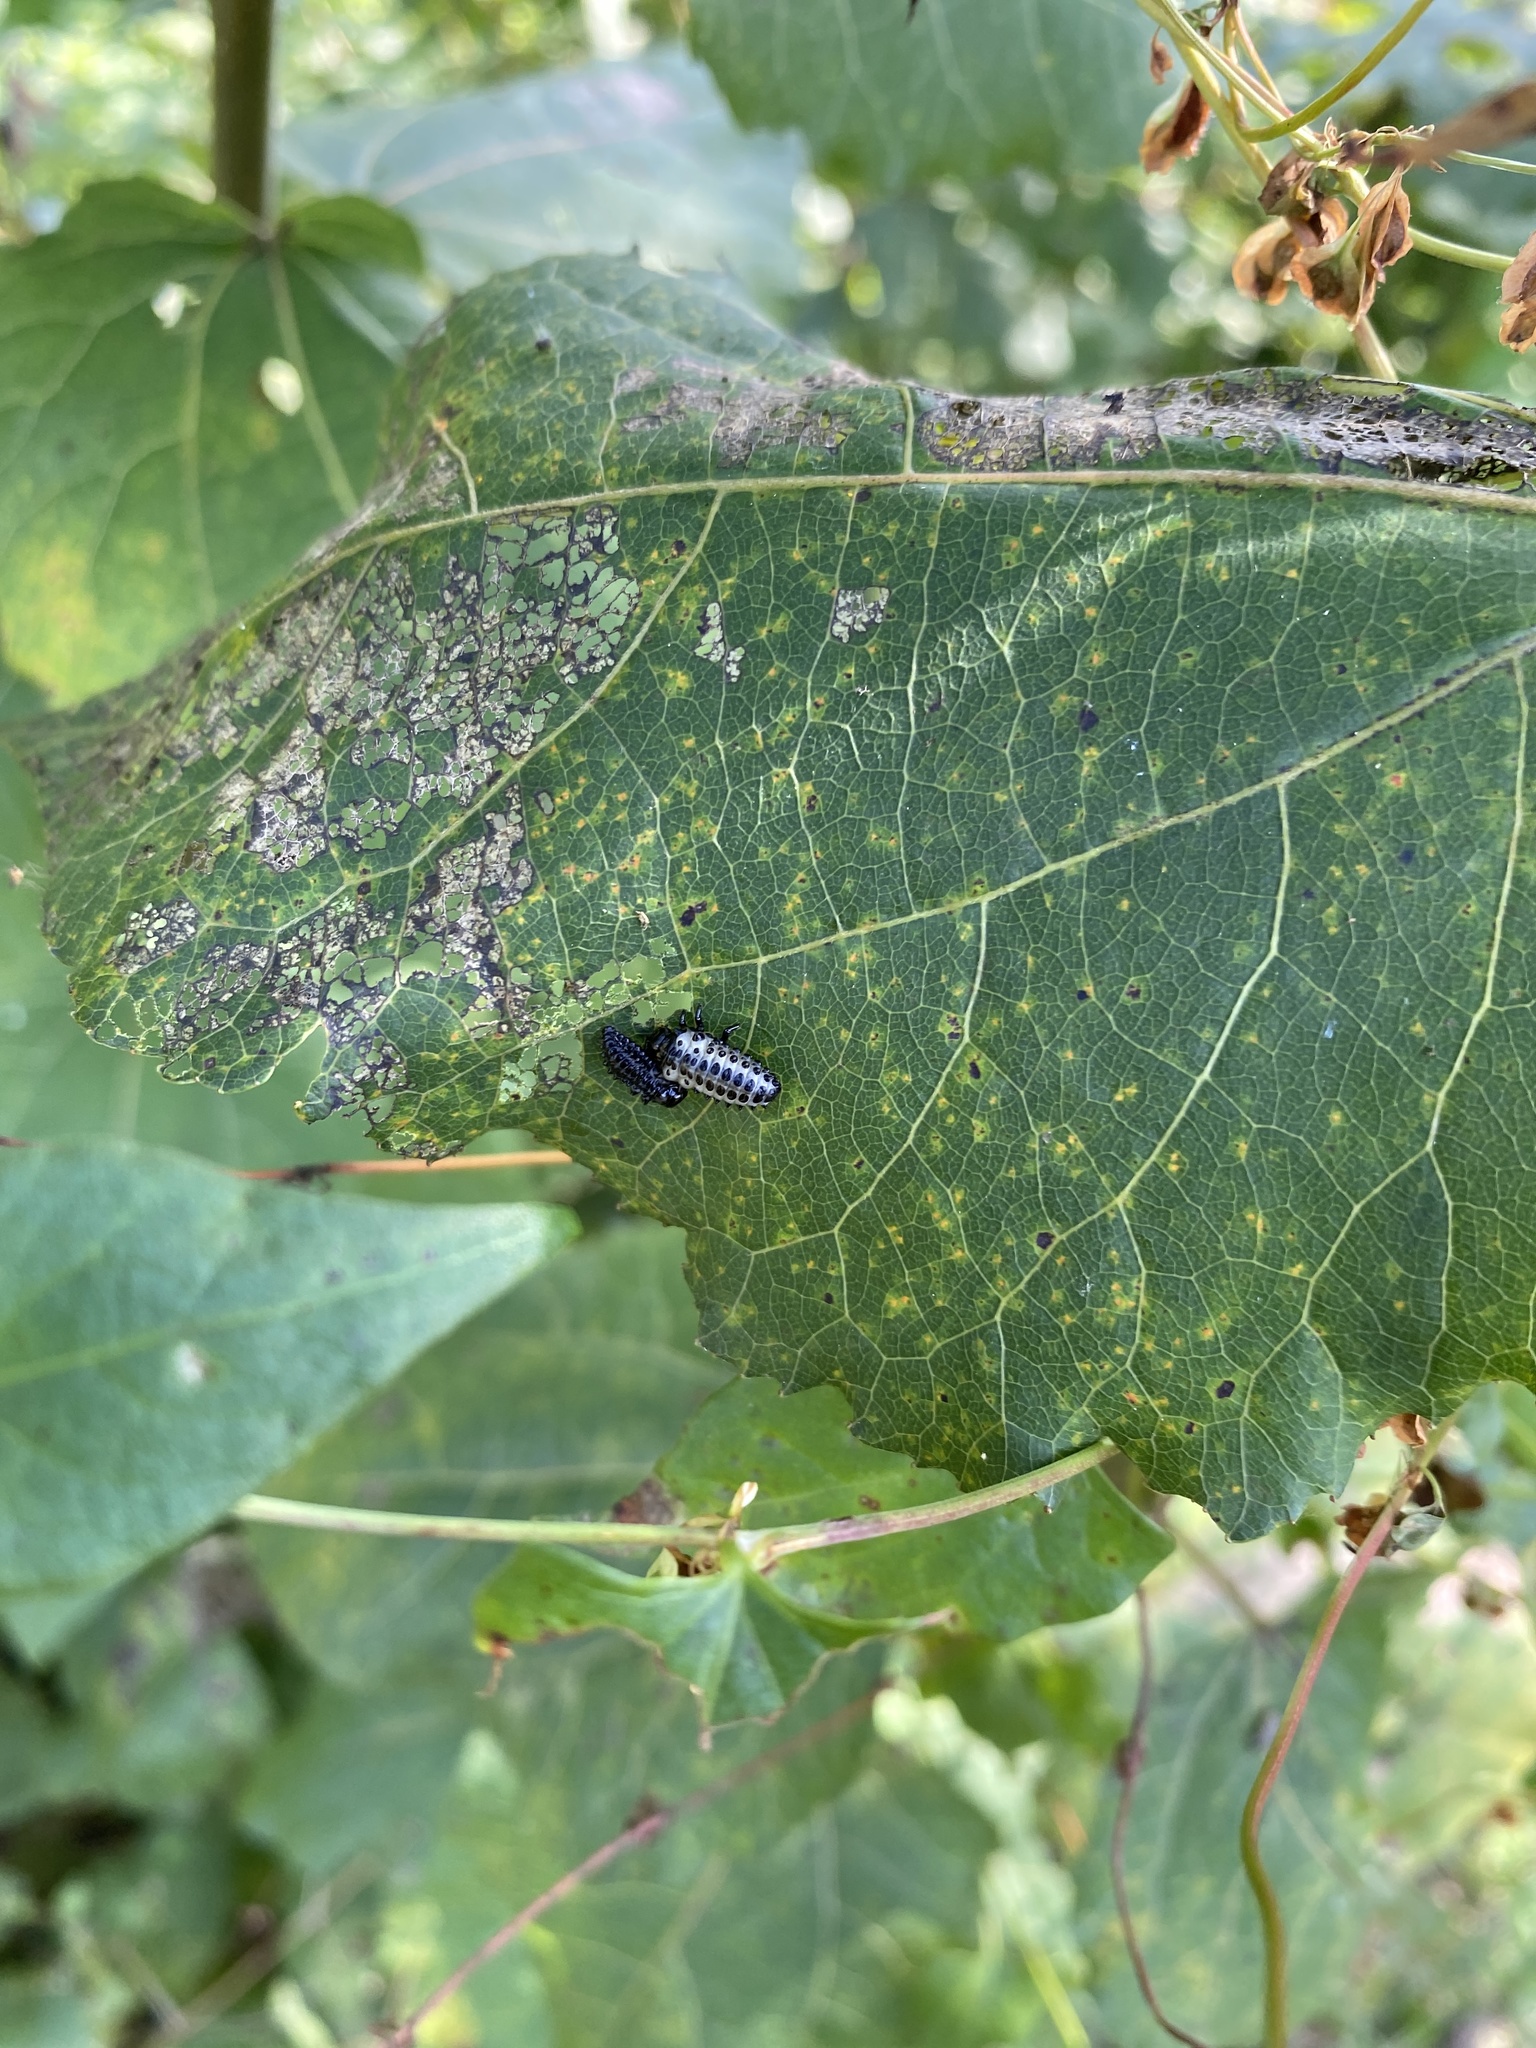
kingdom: Animalia
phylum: Arthropoda
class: Insecta
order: Coleoptera
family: Chrysomelidae
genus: Chrysomela
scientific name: Chrysomela populi
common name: Red poplar leaf beetle
